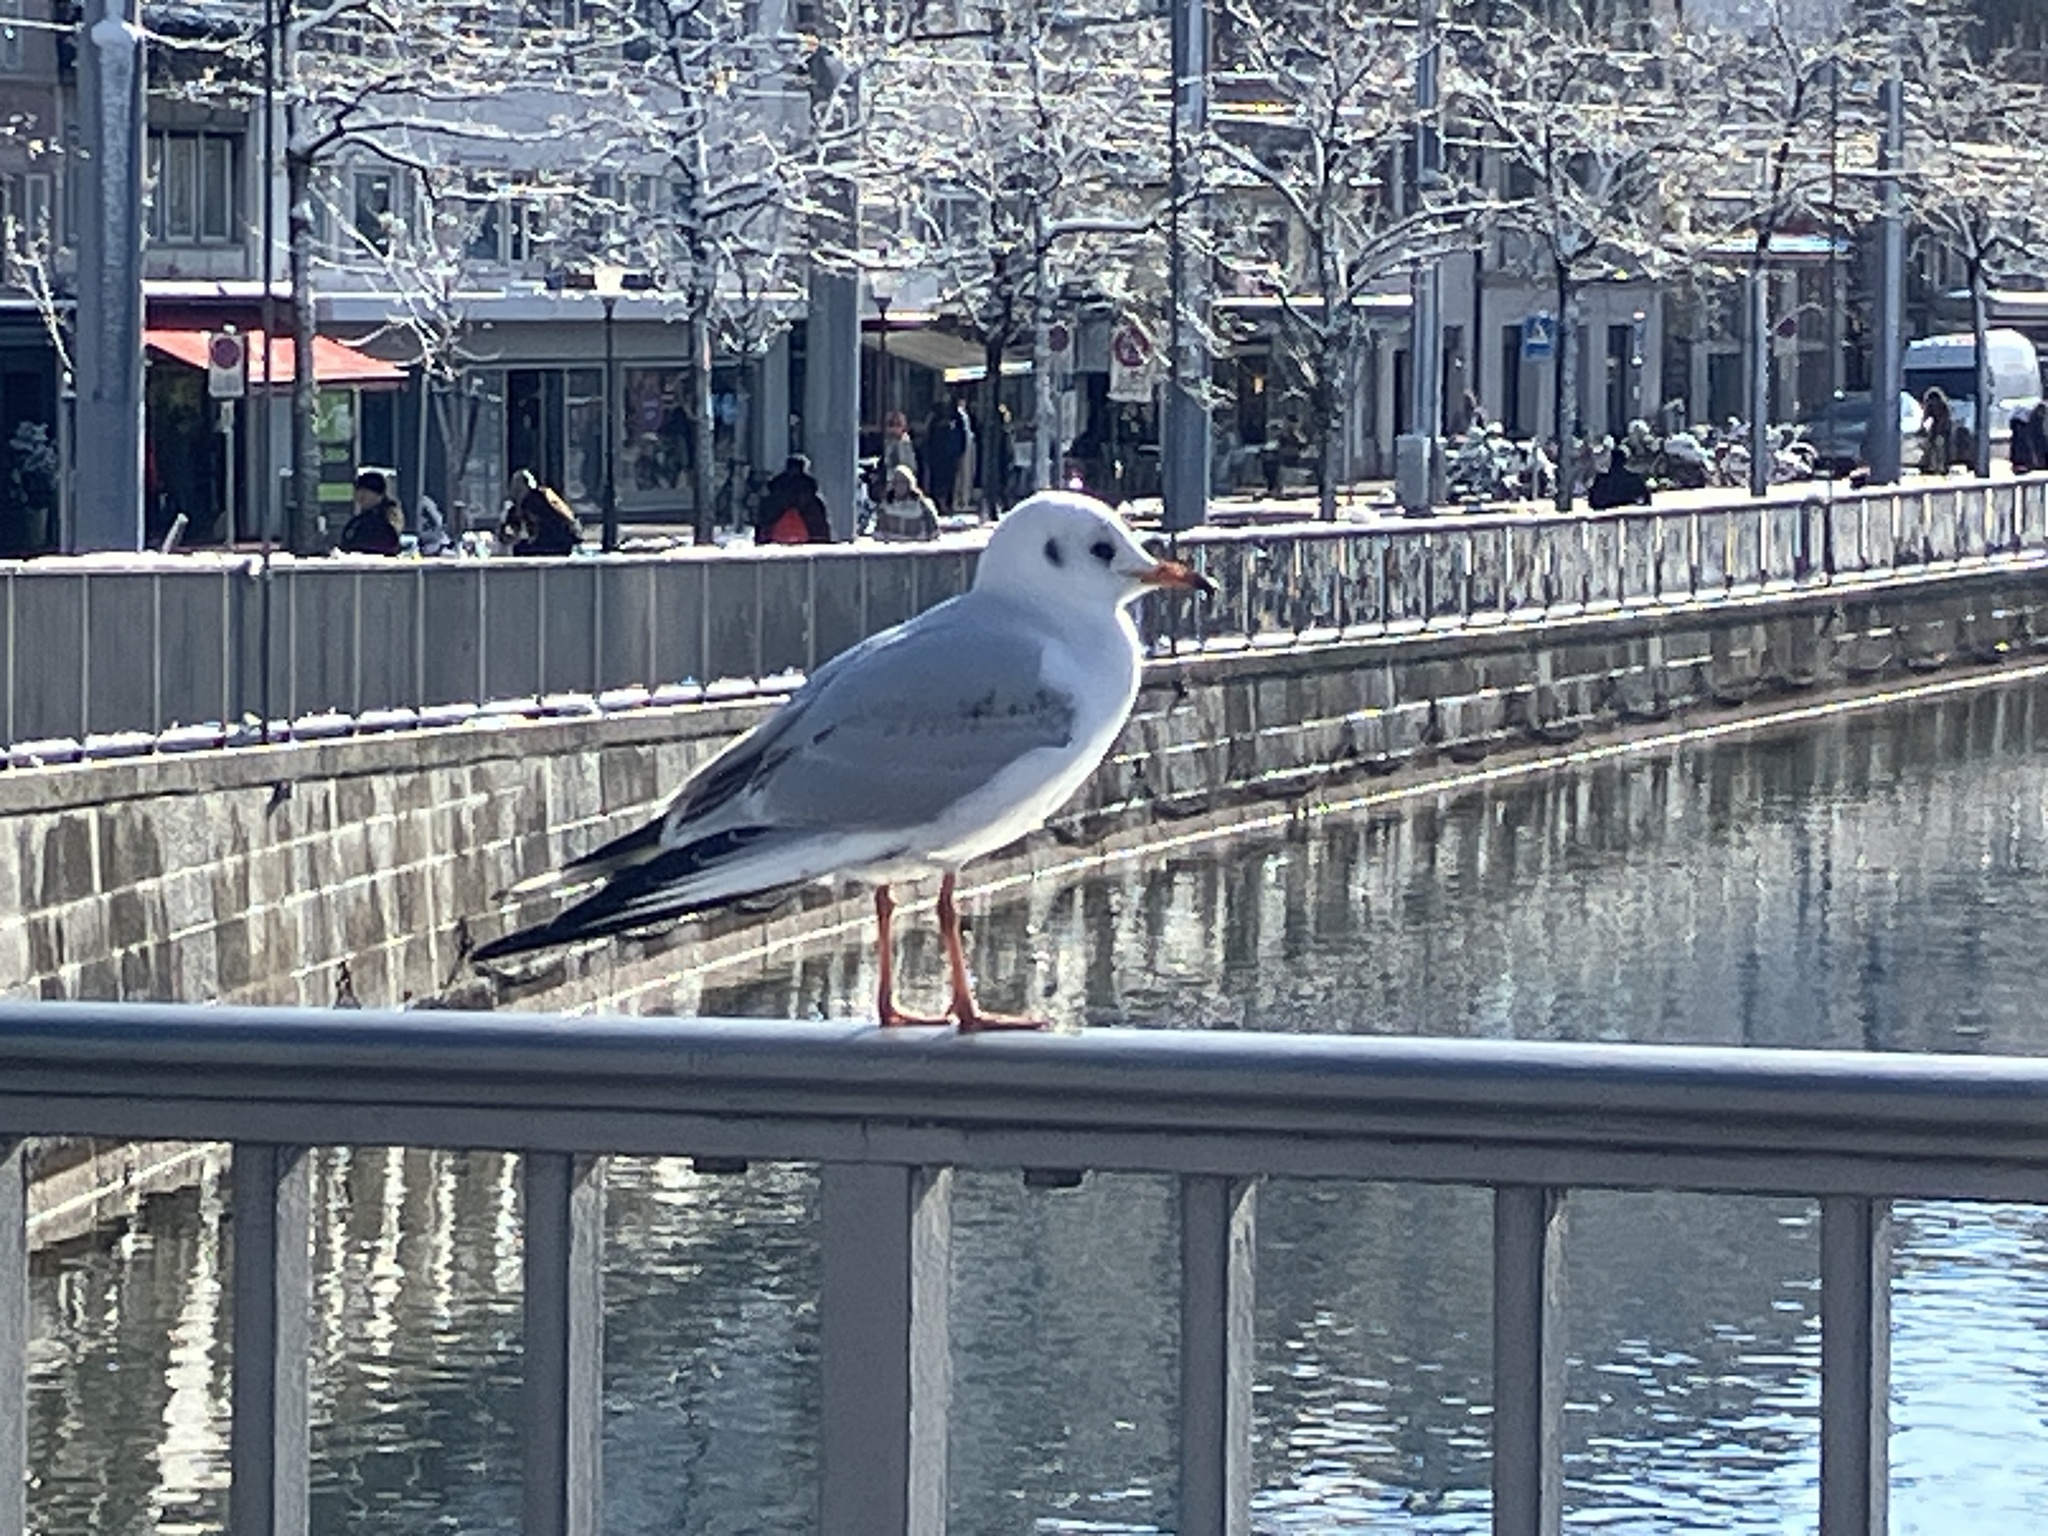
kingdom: Animalia
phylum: Chordata
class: Aves
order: Charadriiformes
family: Laridae
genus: Chroicocephalus
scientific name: Chroicocephalus ridibundus
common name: Black-headed gull
